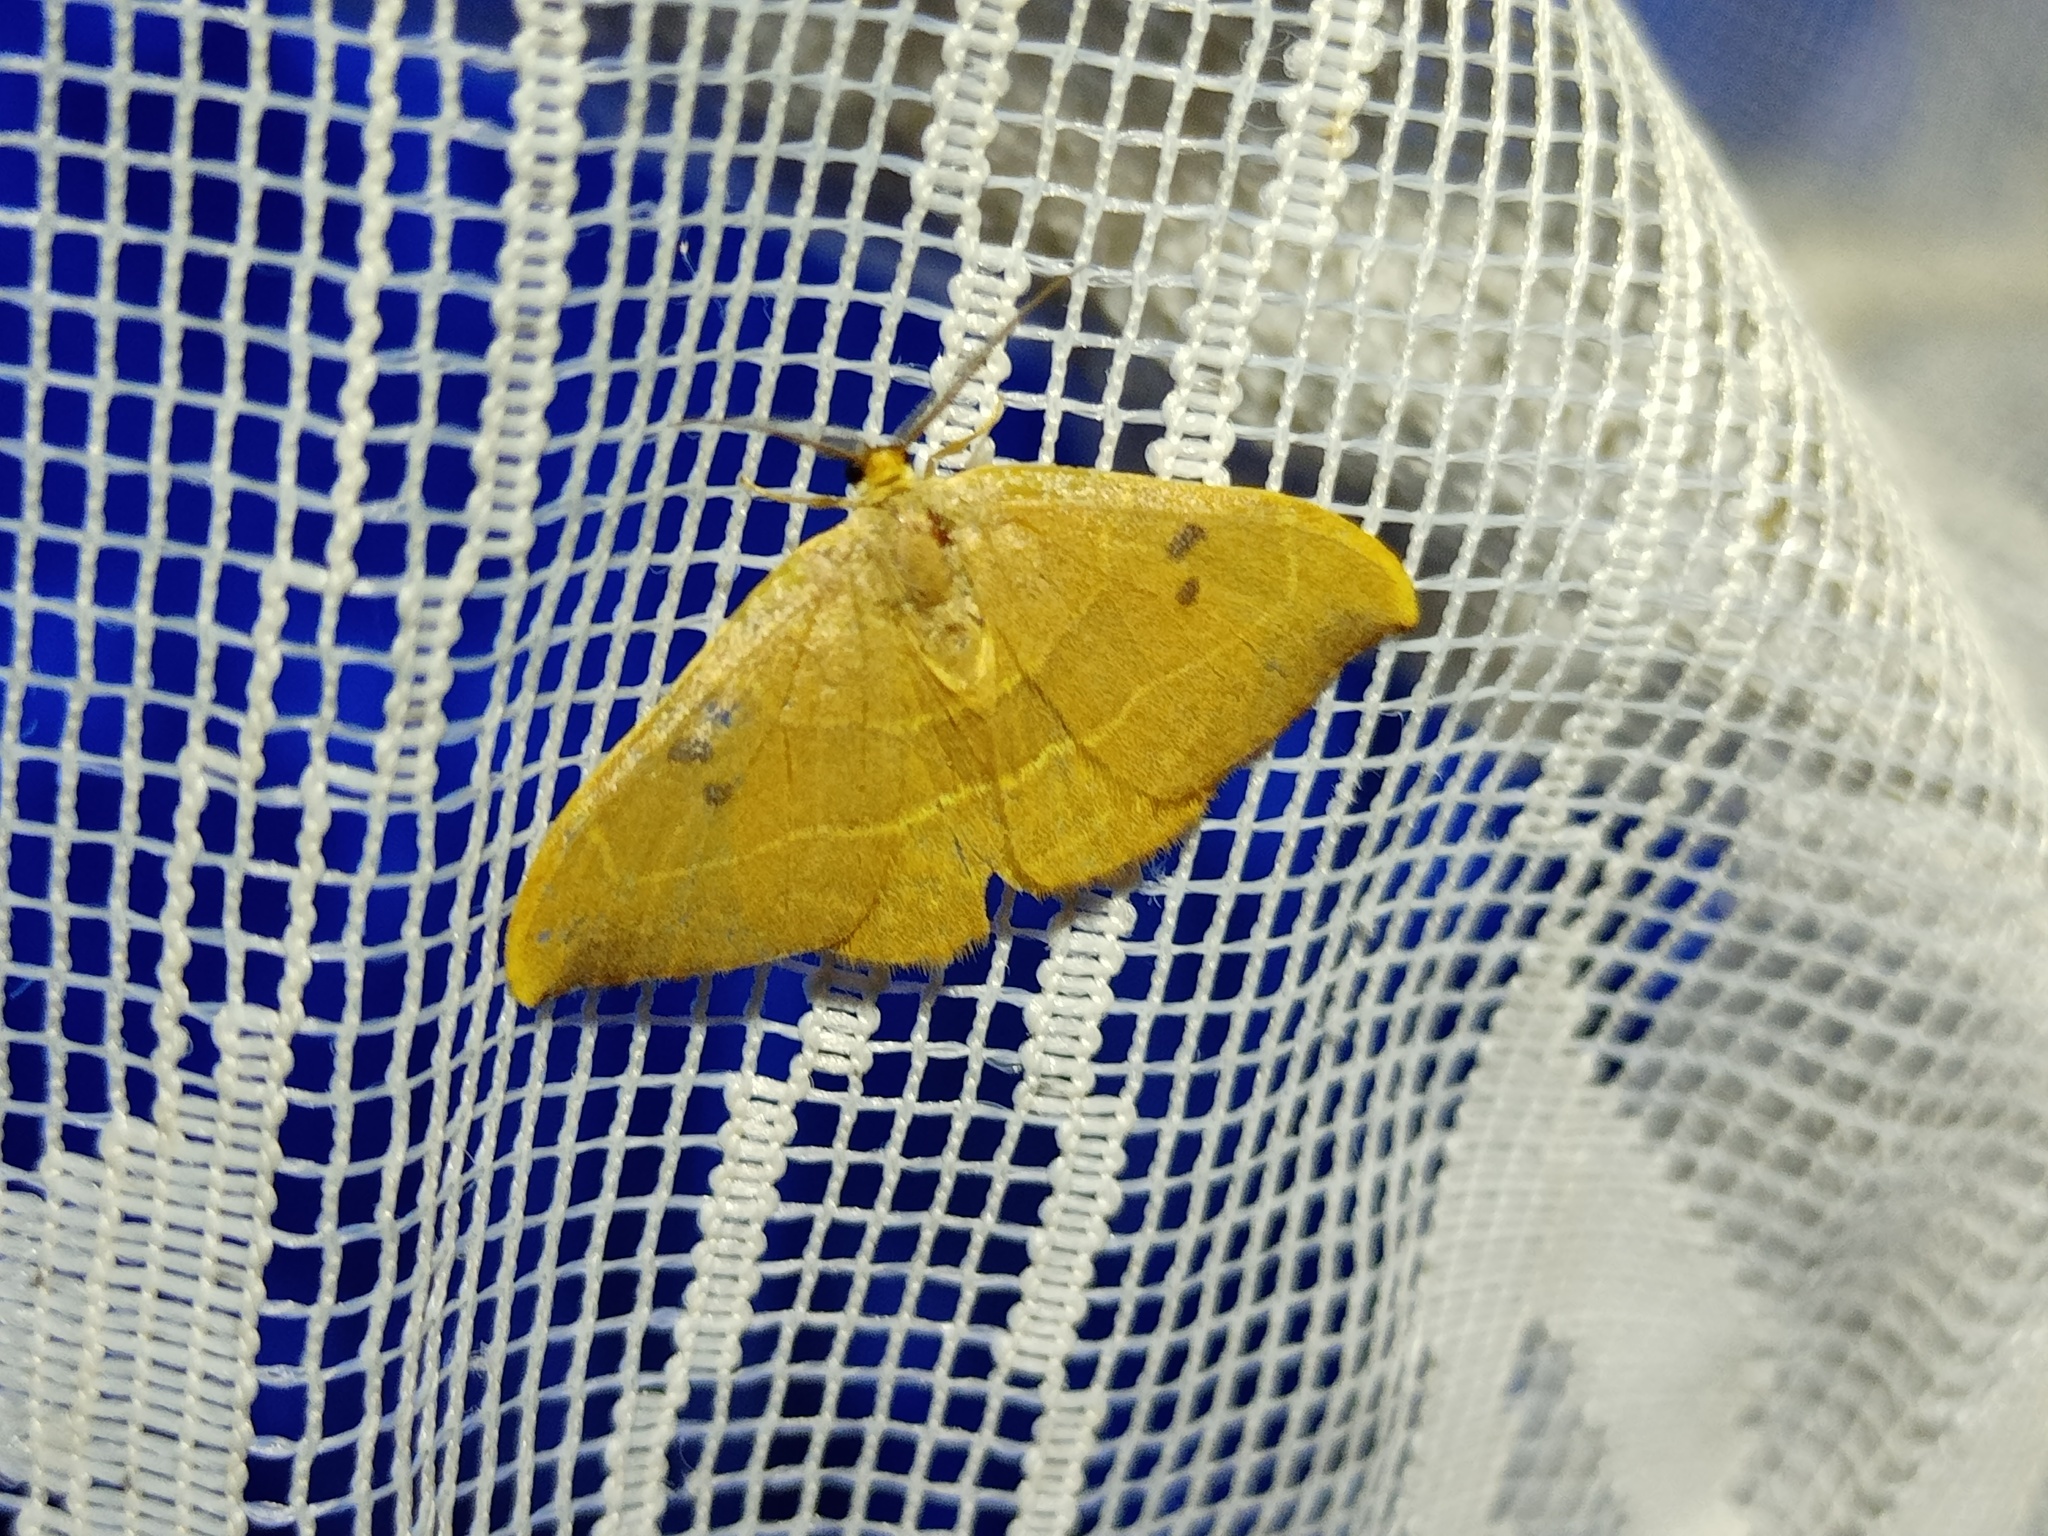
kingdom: Animalia
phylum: Arthropoda
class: Insecta
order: Lepidoptera
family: Drepanidae
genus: Watsonalla
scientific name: Watsonalla binaria
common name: Oak hook-tip
